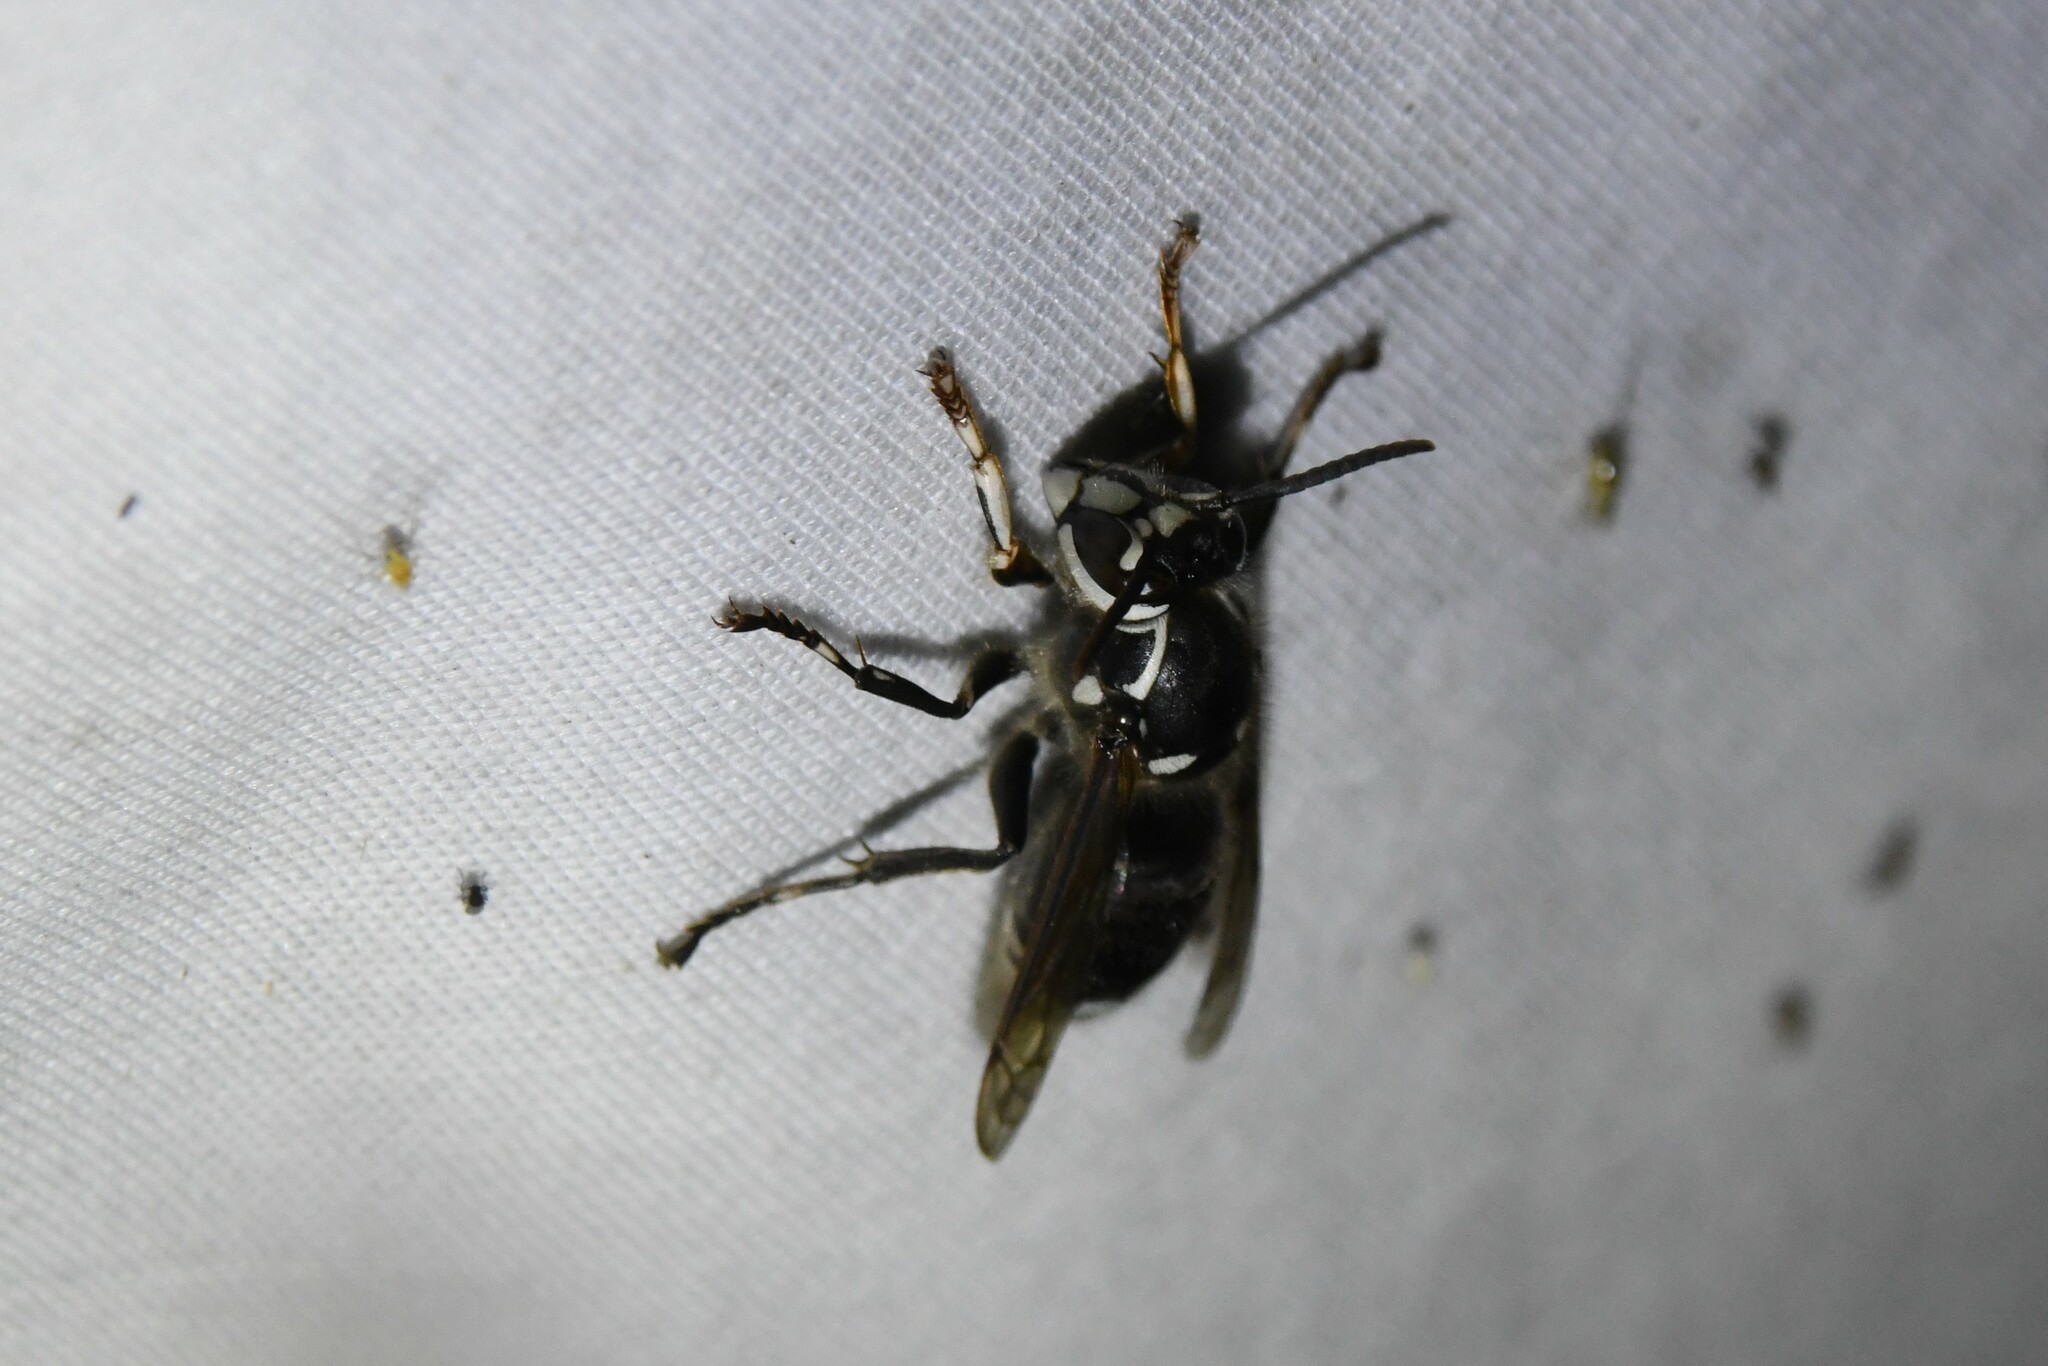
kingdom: Animalia
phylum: Arthropoda
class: Insecta
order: Hymenoptera
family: Vespidae
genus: Dolichovespula
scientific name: Dolichovespula maculata
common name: Bald-faced hornet
